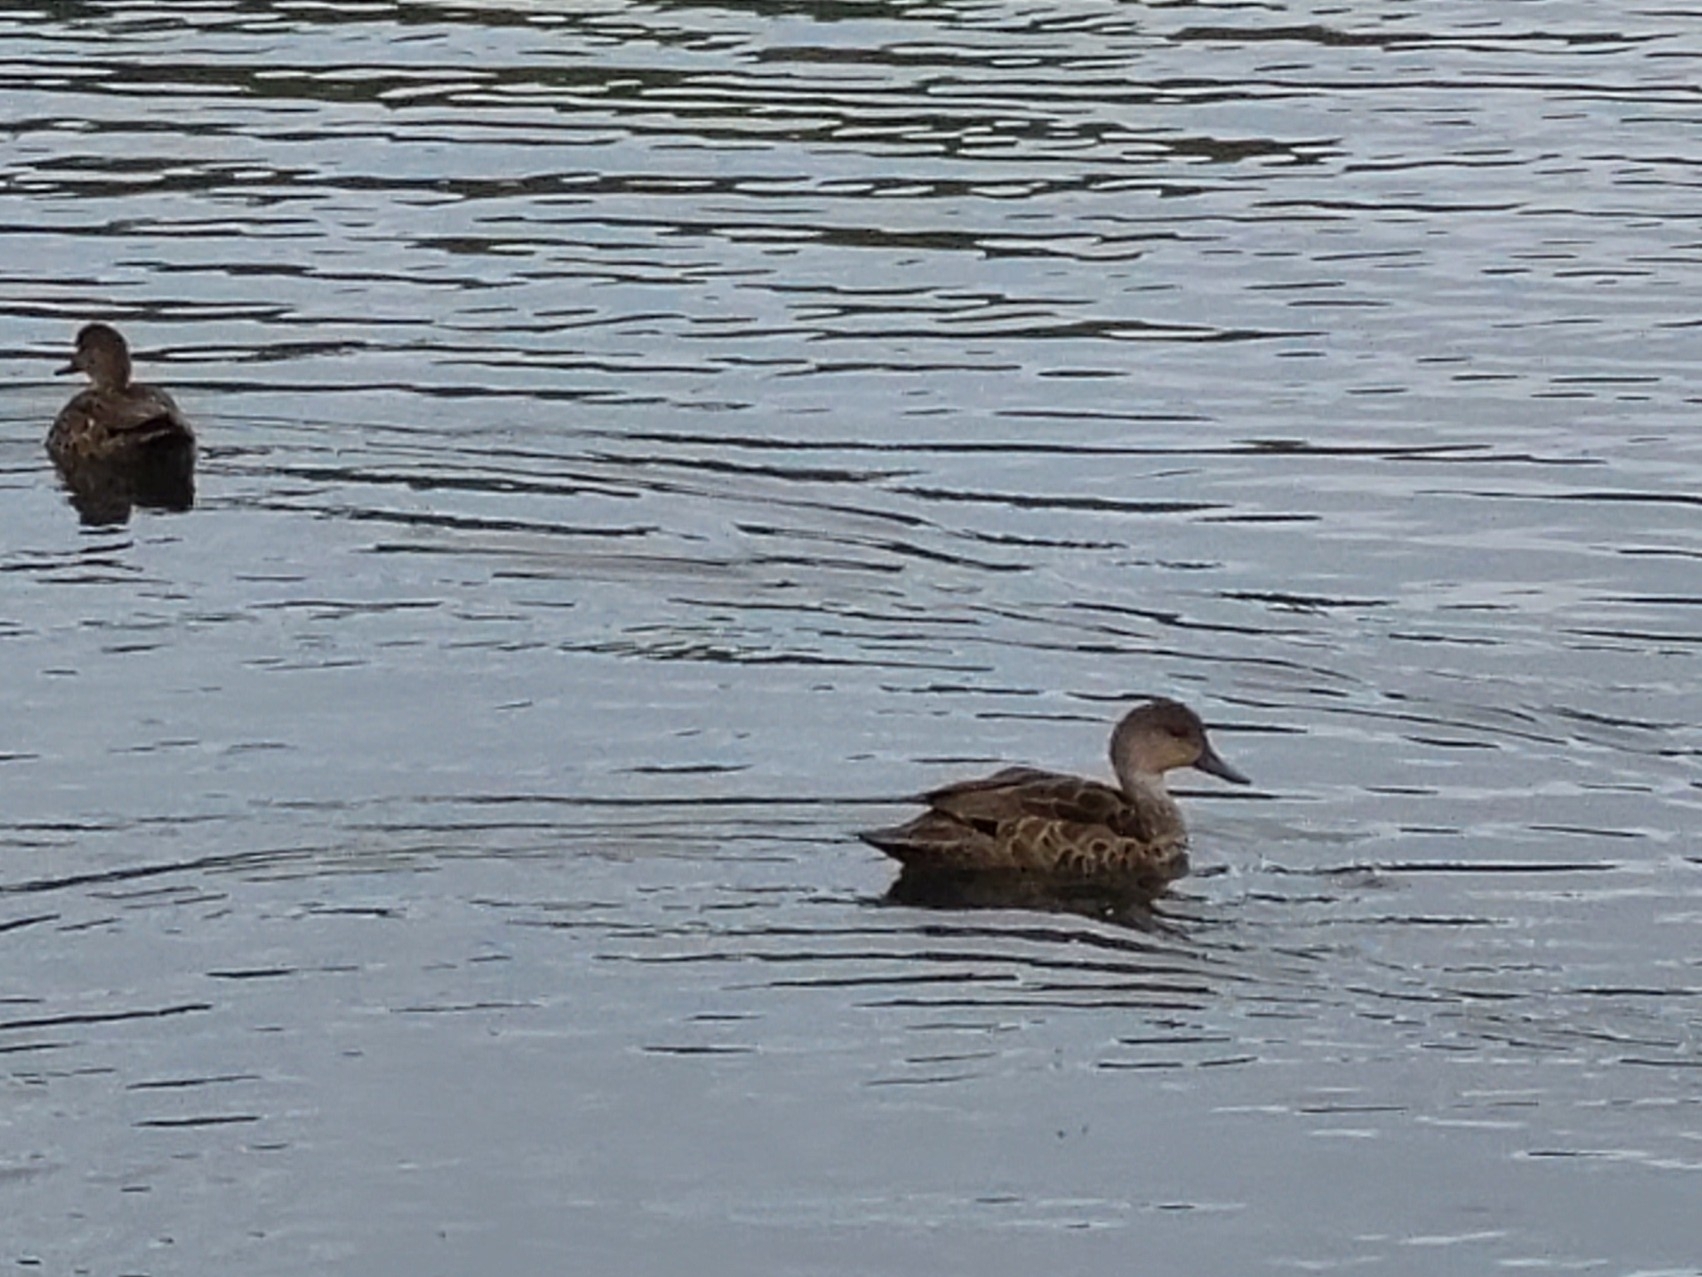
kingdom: Animalia
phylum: Chordata
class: Aves
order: Anseriformes
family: Anatidae
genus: Anas
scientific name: Anas gracilis
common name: Grey teal
